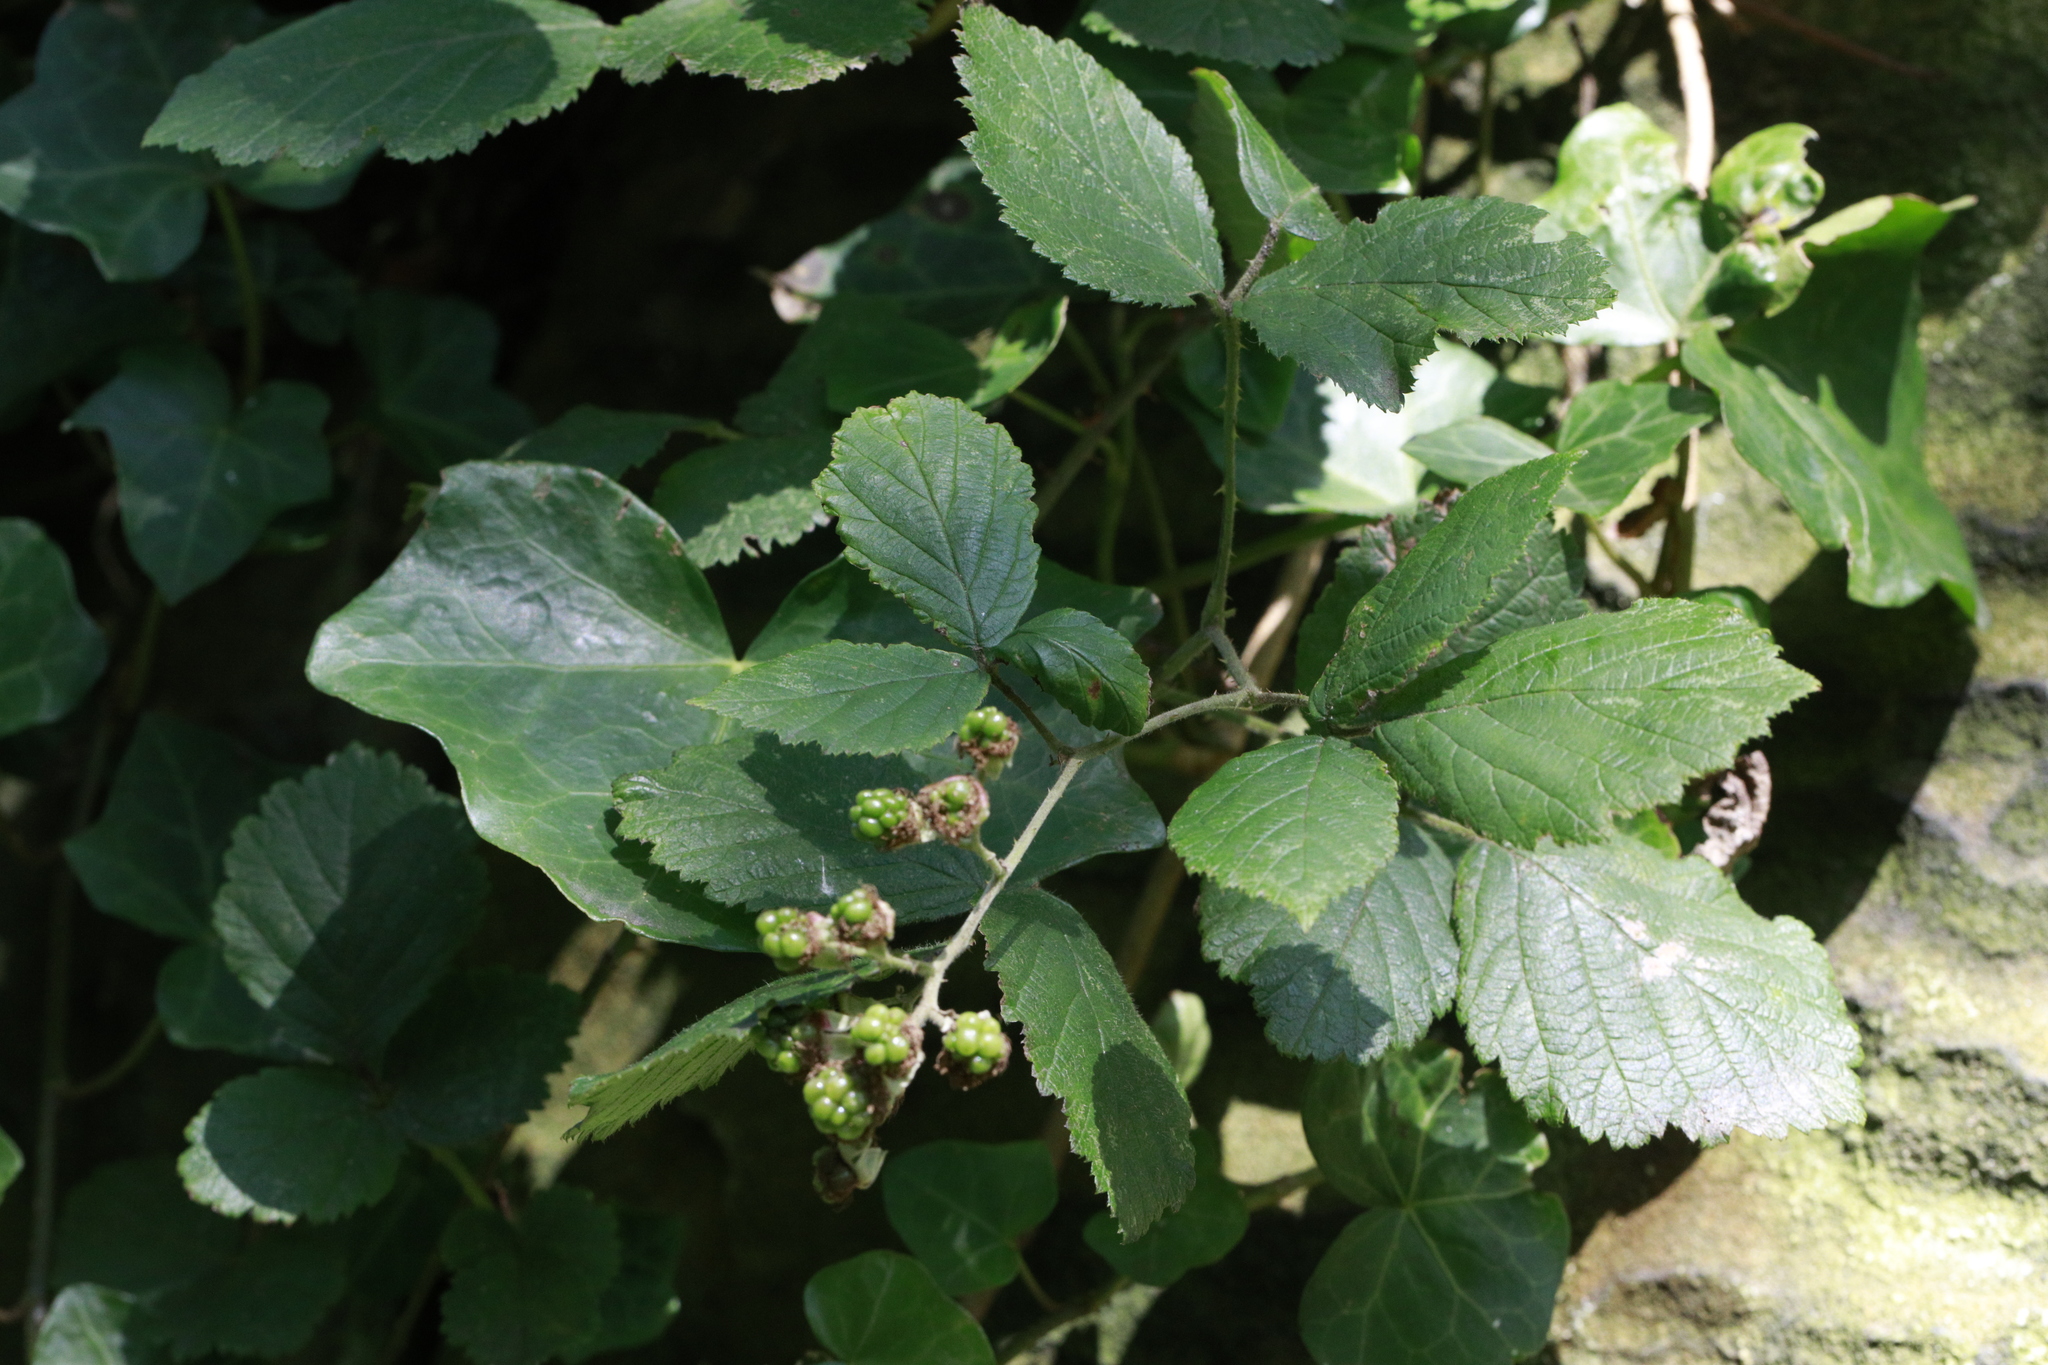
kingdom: Plantae
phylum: Tracheophyta
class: Magnoliopsida
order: Rosales
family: Rosaceae
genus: Rubus
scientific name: Rubus fruticosus
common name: Blackberry, bramble
